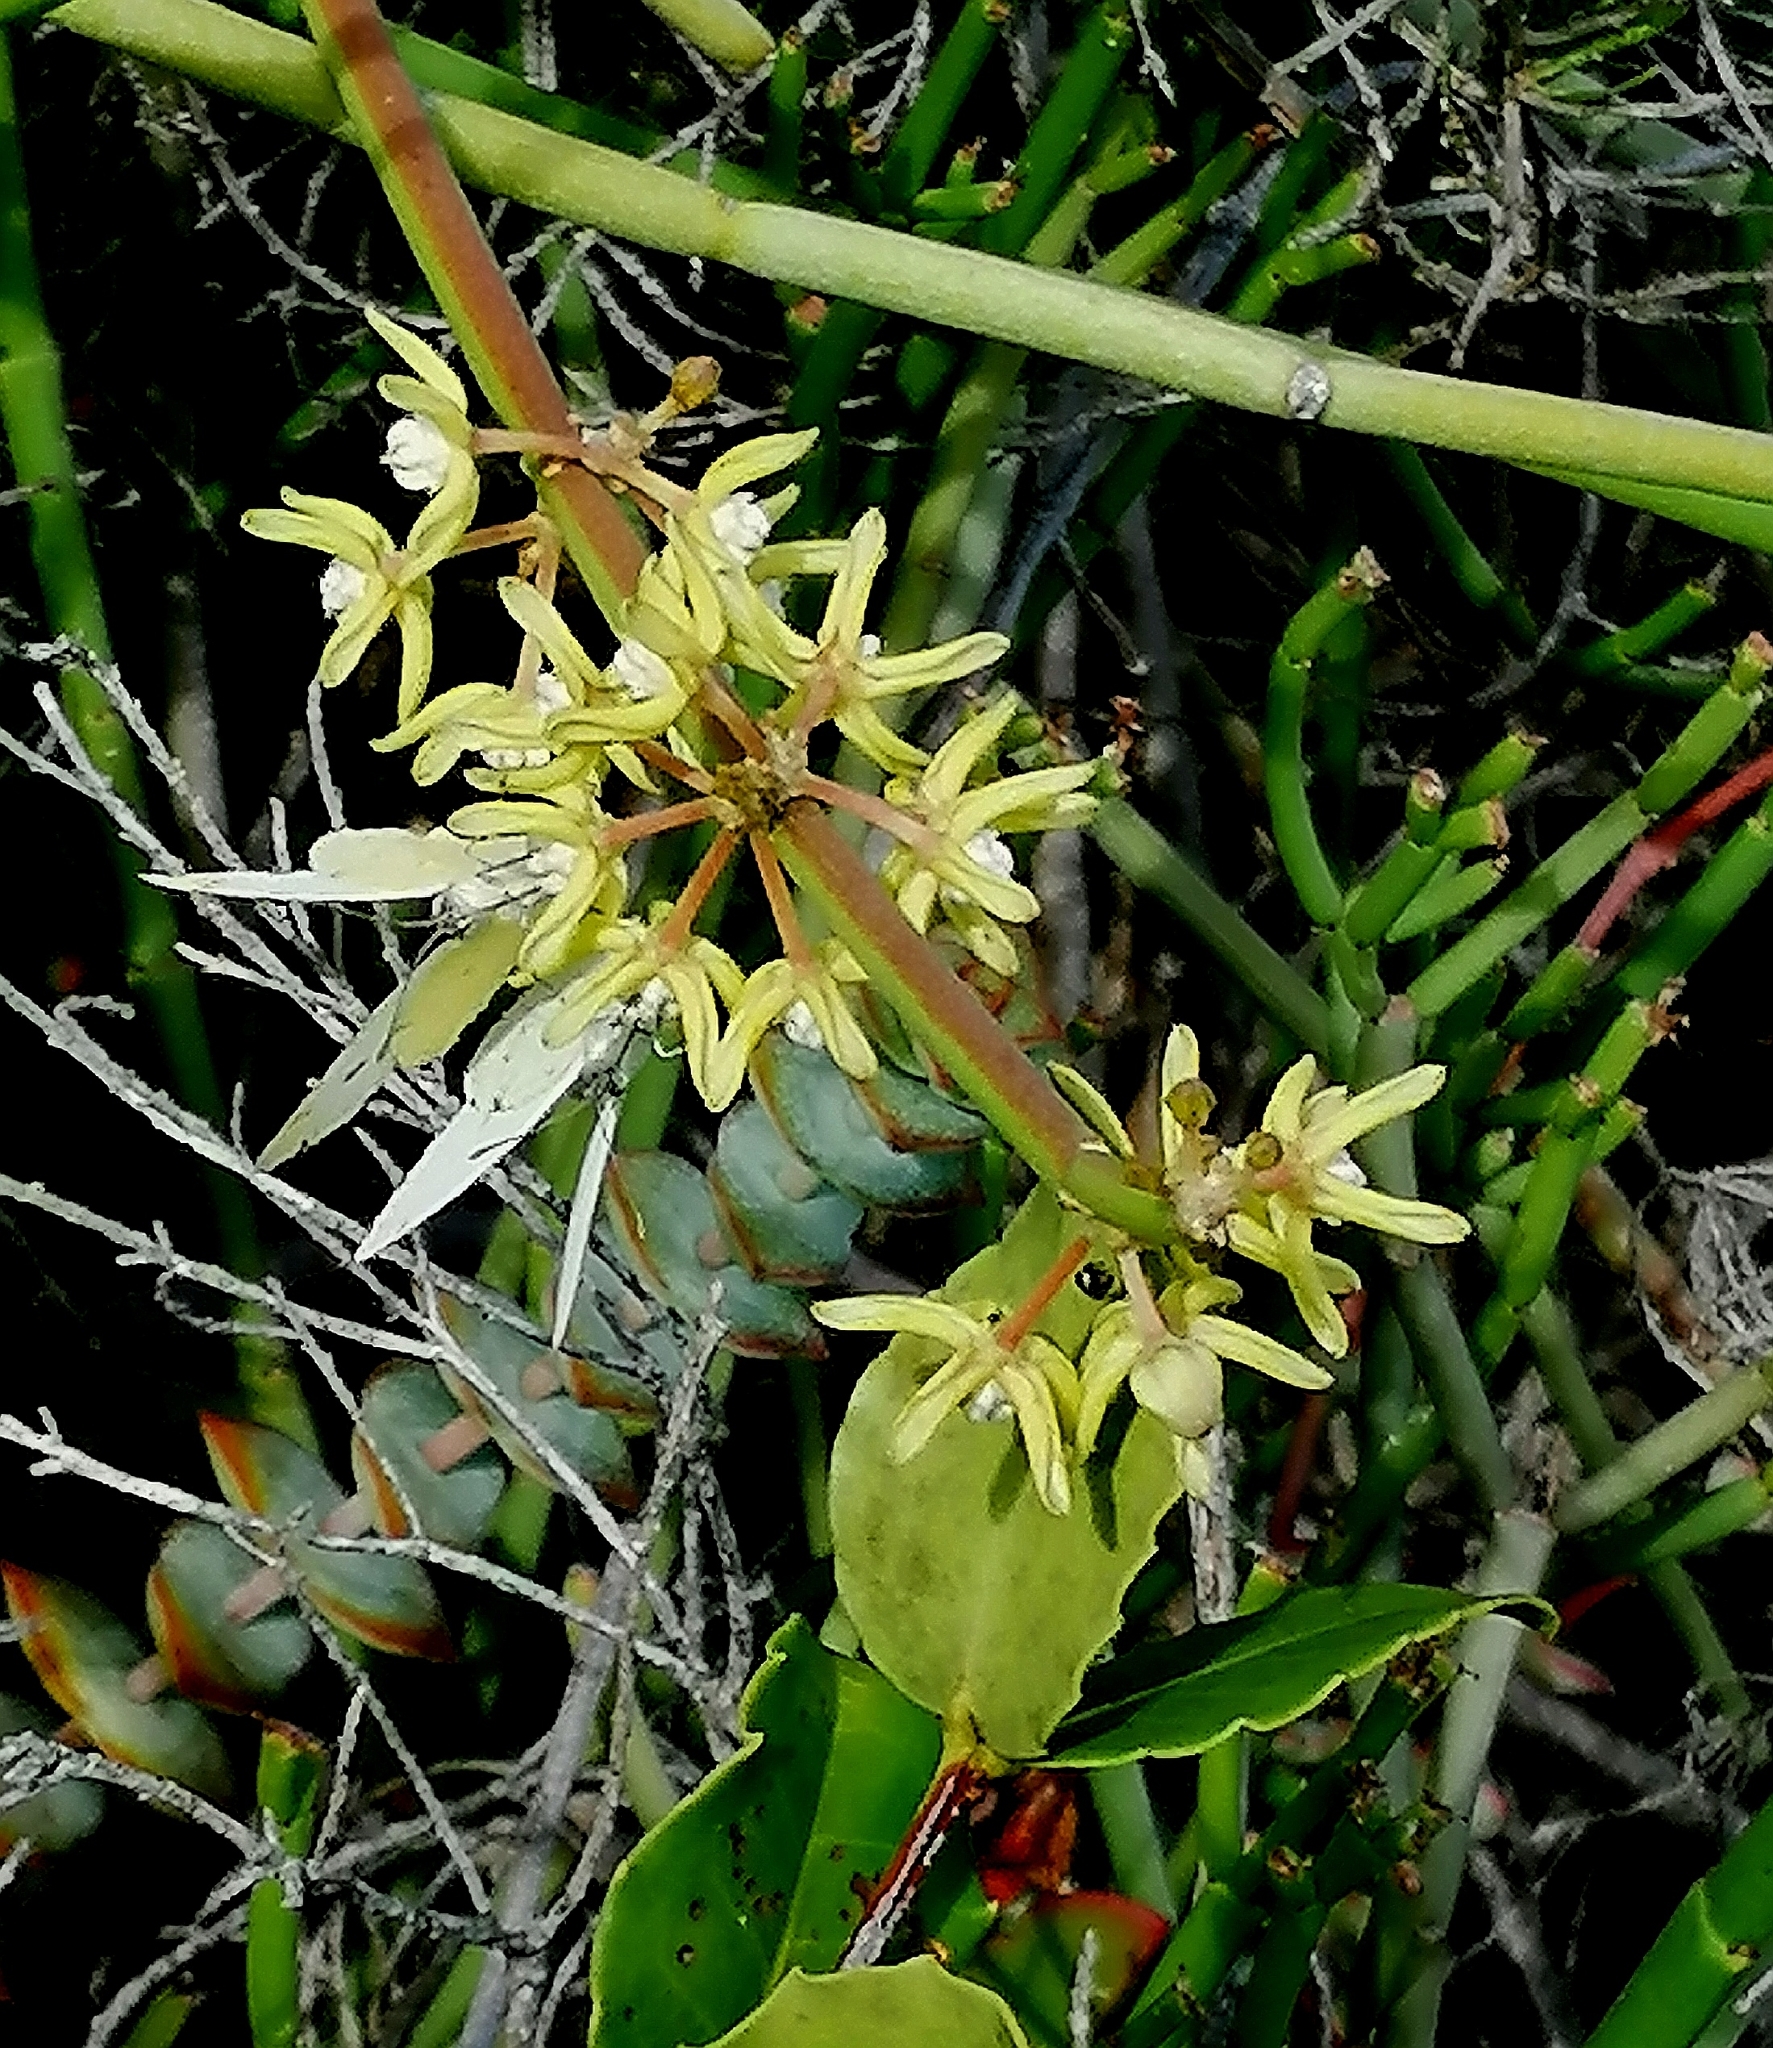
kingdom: Plantae
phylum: Tracheophyta
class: Magnoliopsida
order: Gentianales
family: Apocynaceae
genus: Cynanchum
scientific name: Cynanchum viminale
